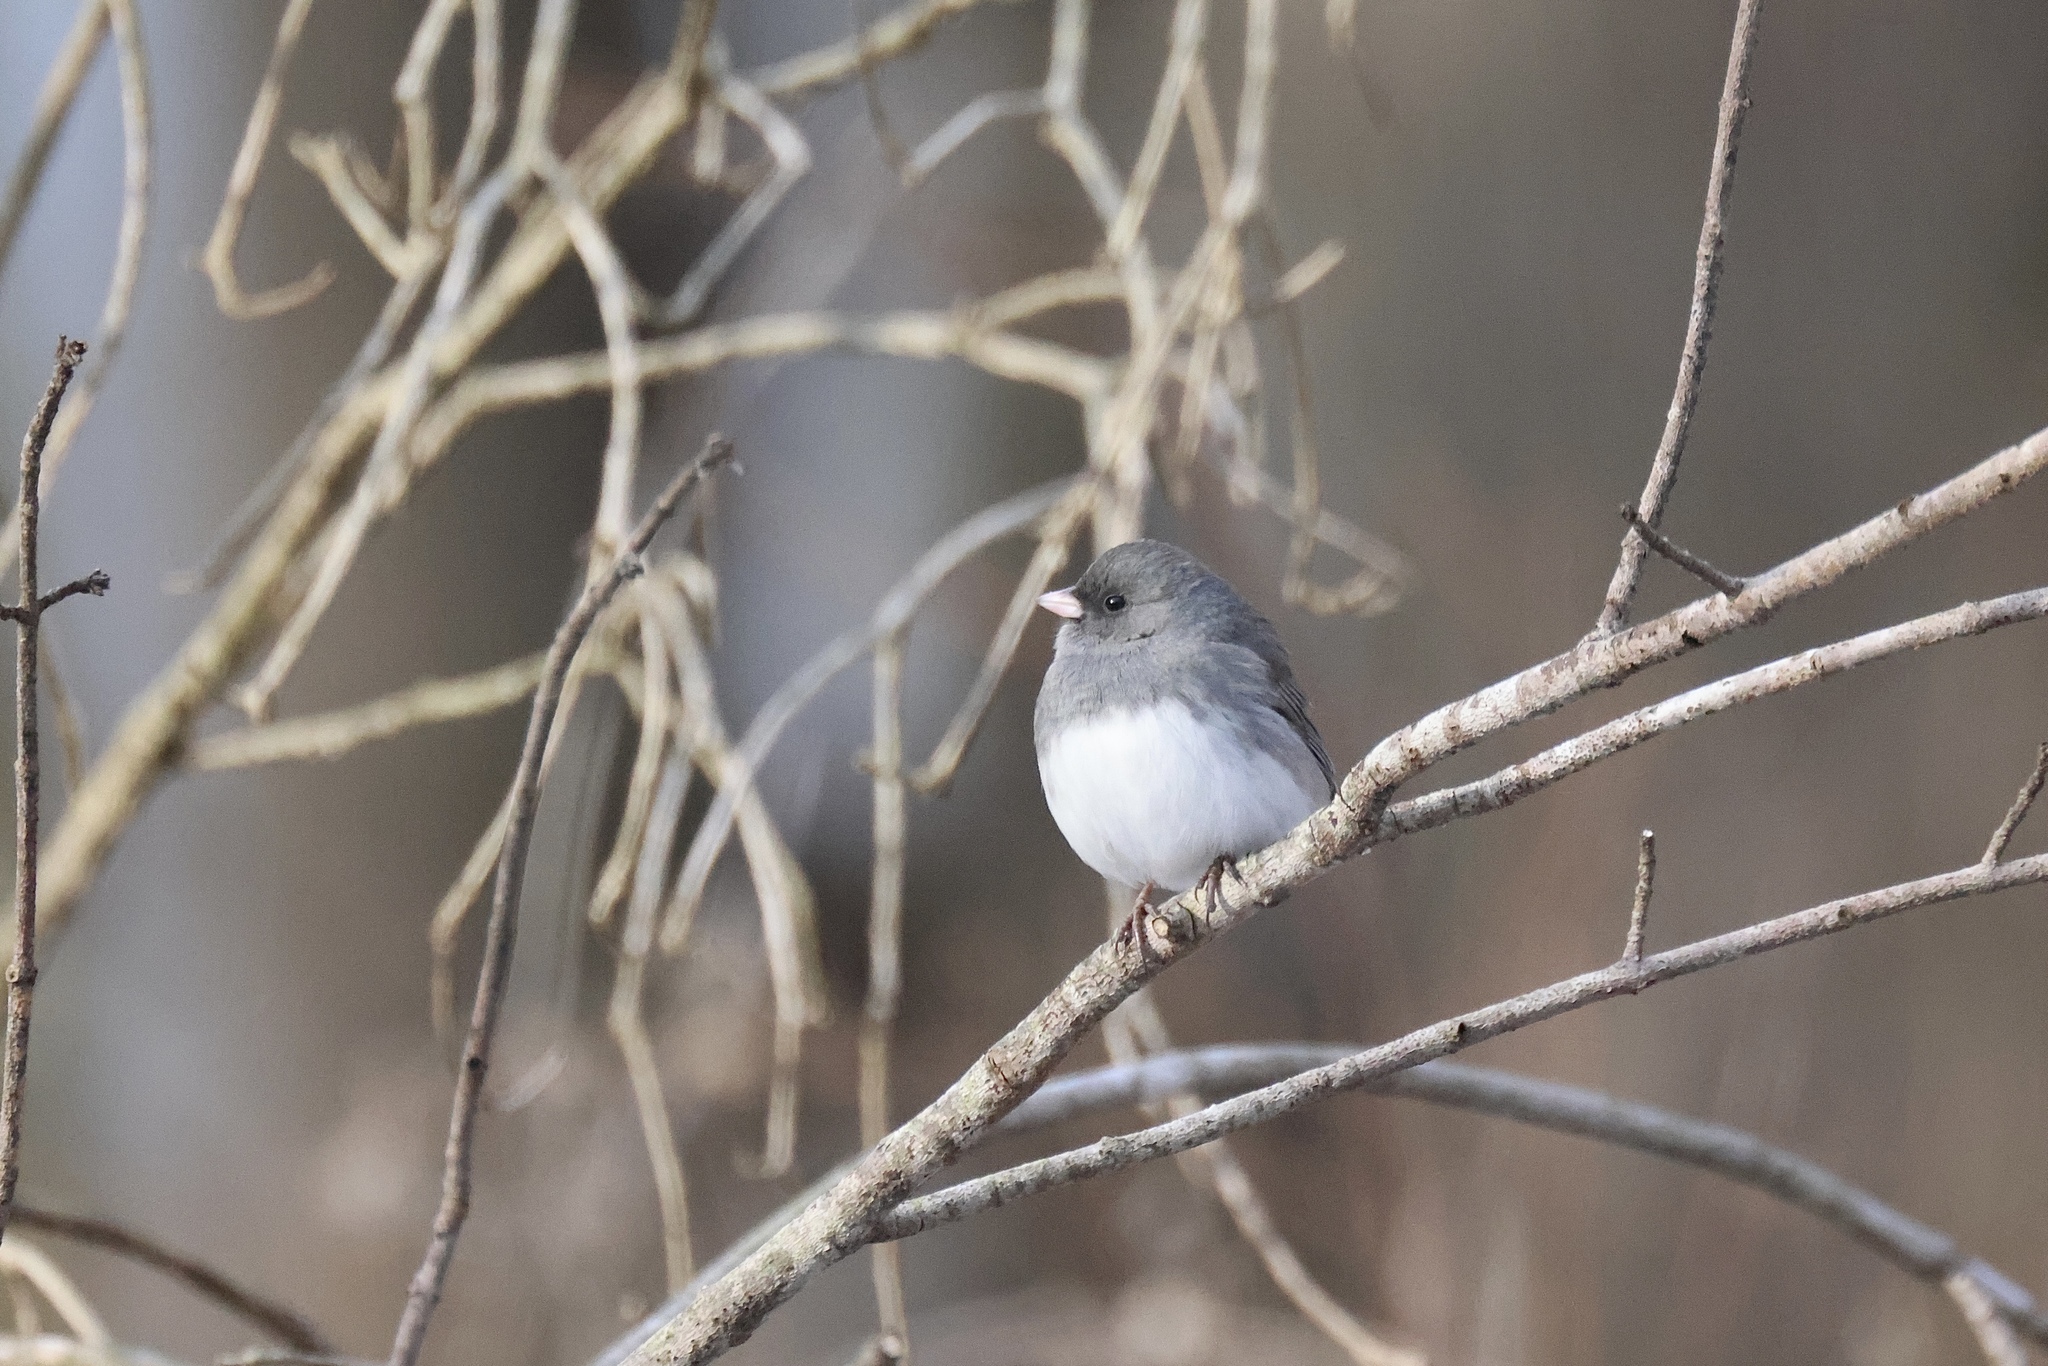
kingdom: Animalia
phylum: Chordata
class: Aves
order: Passeriformes
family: Passerellidae
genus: Junco
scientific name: Junco hyemalis
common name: Dark-eyed junco
